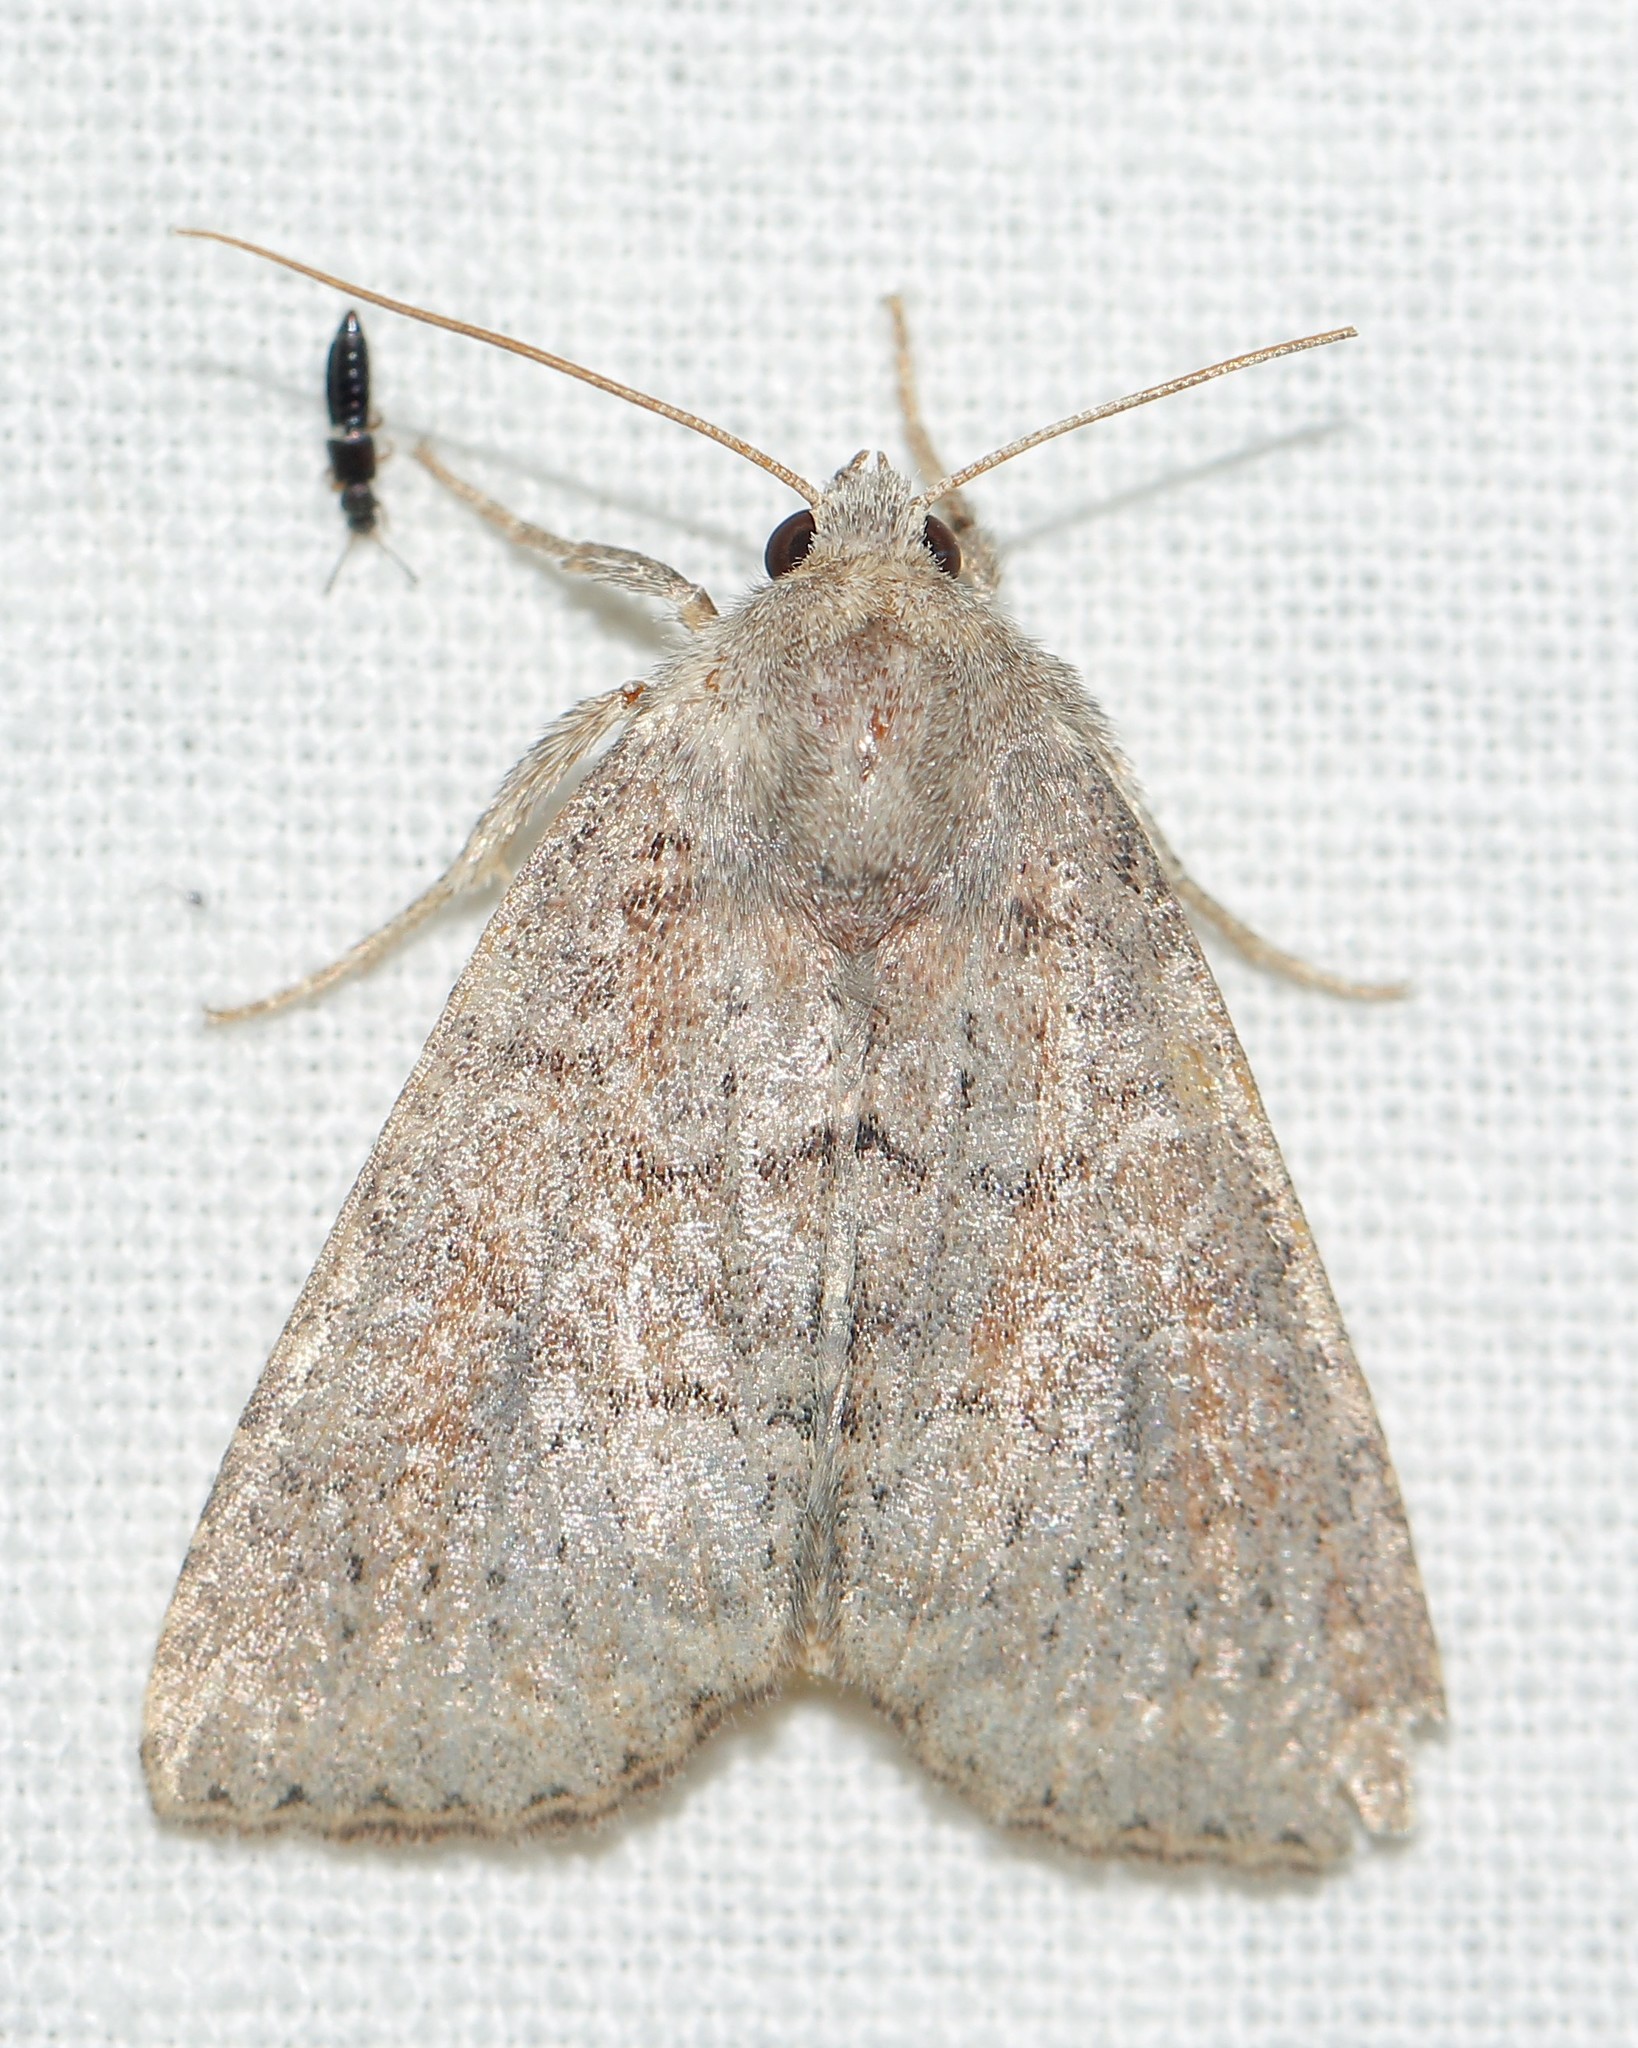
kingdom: Animalia
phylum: Arthropoda
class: Insecta
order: Lepidoptera
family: Noctuidae
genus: Parastichtis
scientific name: Parastichtis suspecta
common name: Suspected
